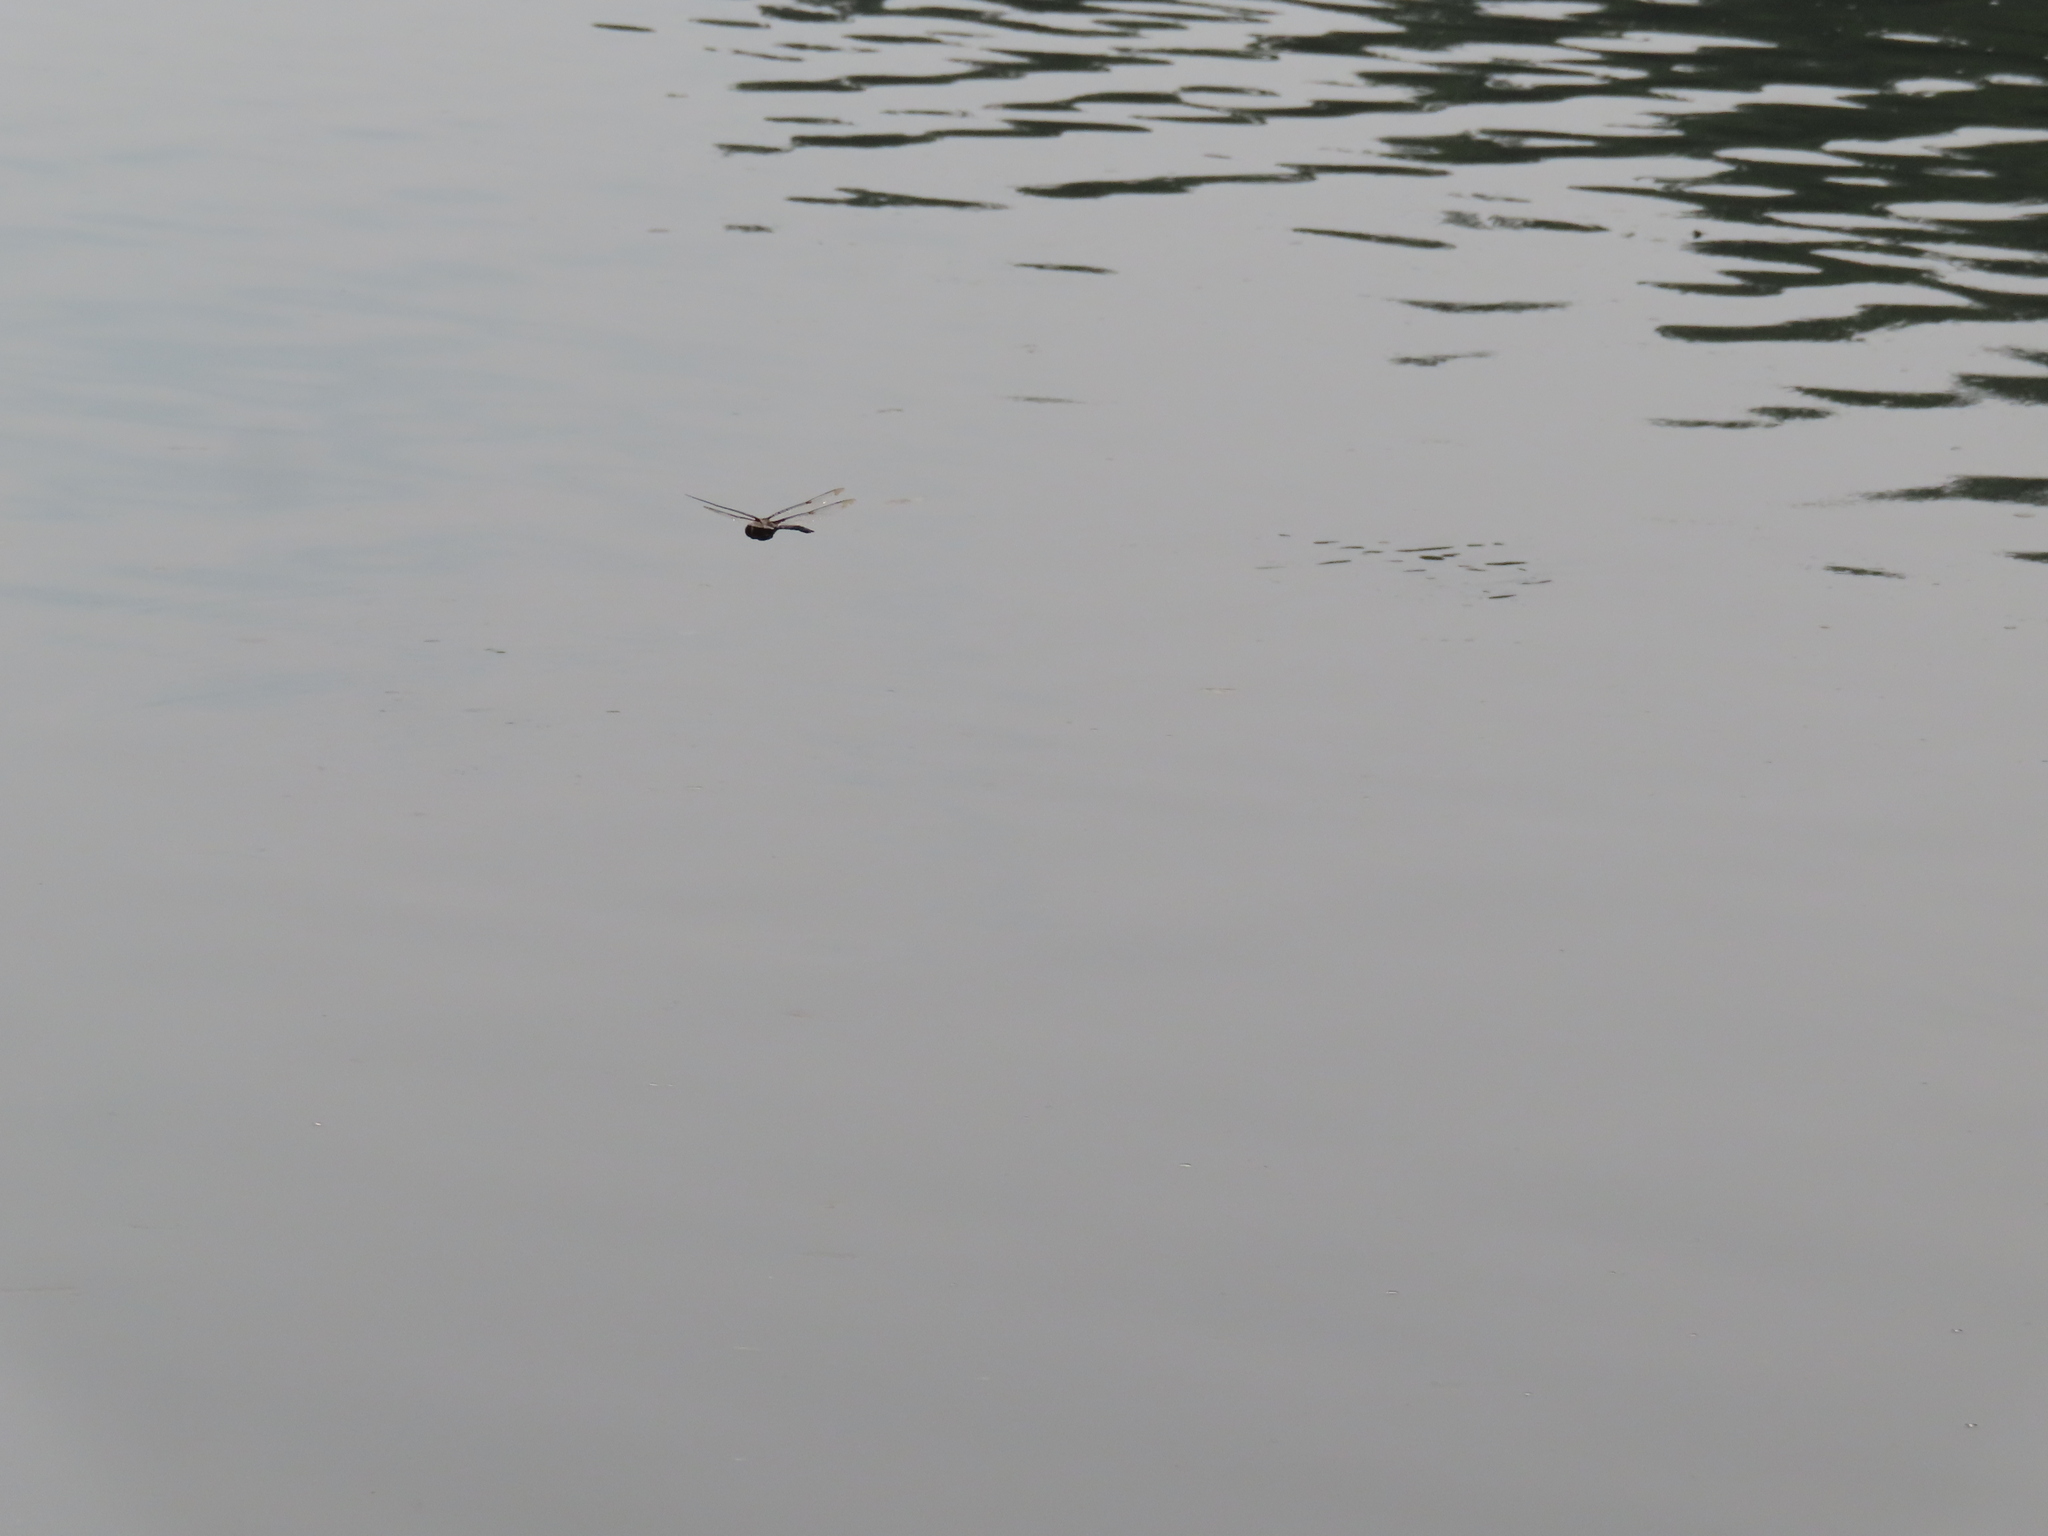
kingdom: Animalia
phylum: Arthropoda
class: Insecta
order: Odonata
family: Corduliidae
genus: Epitheca
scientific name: Epitheca princeps
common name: Prince baskettail
